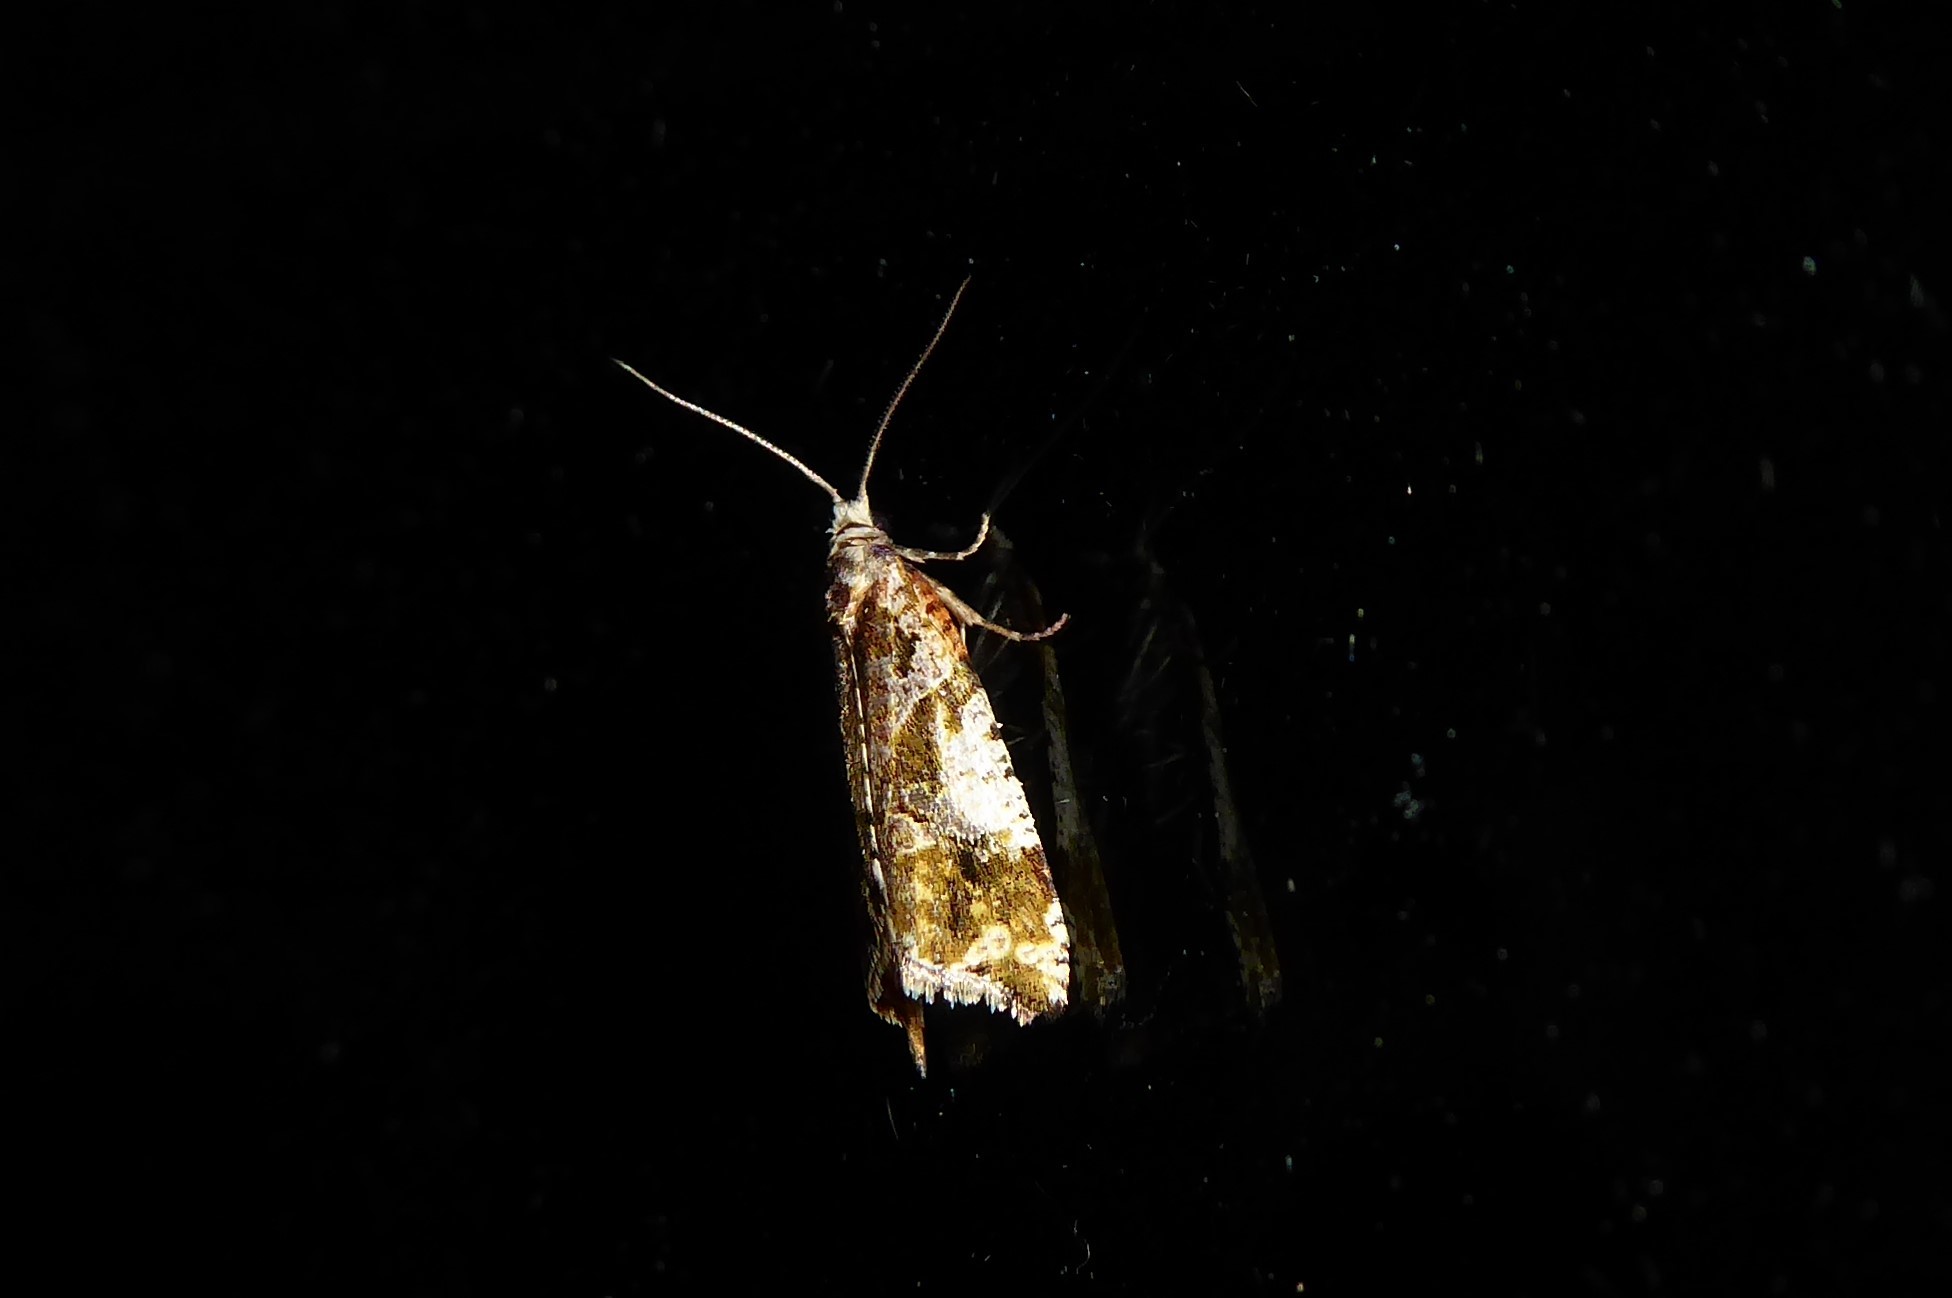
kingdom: Animalia
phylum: Arthropoda
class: Insecta
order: Lepidoptera
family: Tortricidae
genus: Pyrgotis
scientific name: Pyrgotis plagiatana
